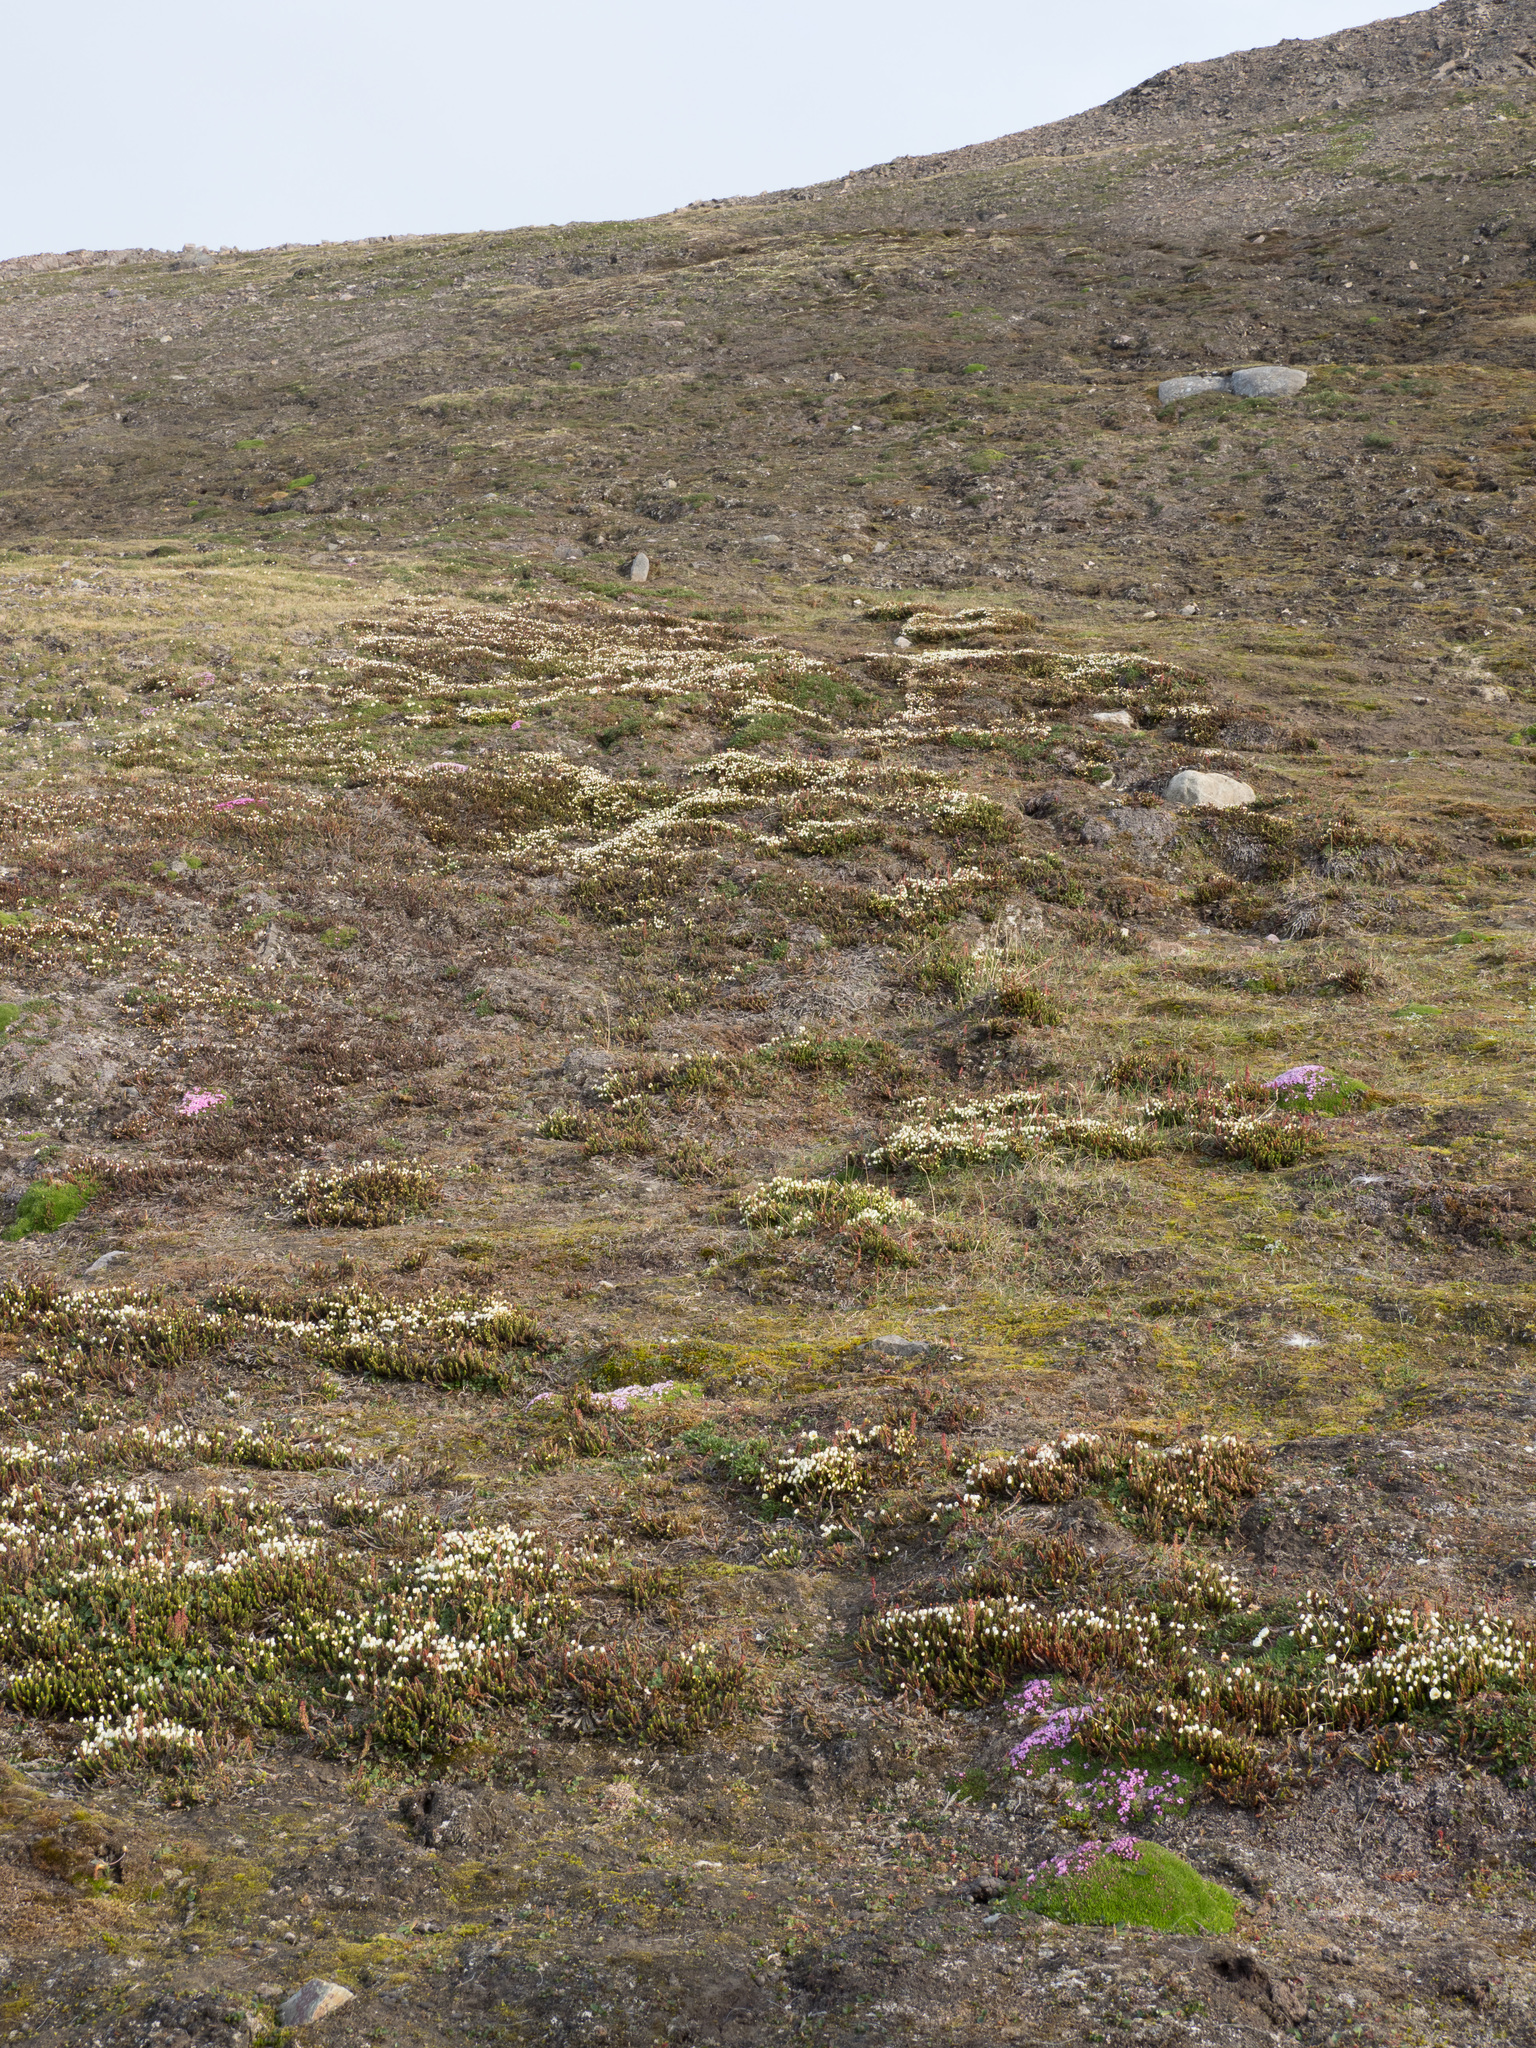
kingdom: Plantae
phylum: Tracheophyta
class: Magnoliopsida
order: Ericales
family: Ericaceae
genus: Cassiope
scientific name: Cassiope tetragona
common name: Arctic bell heather
